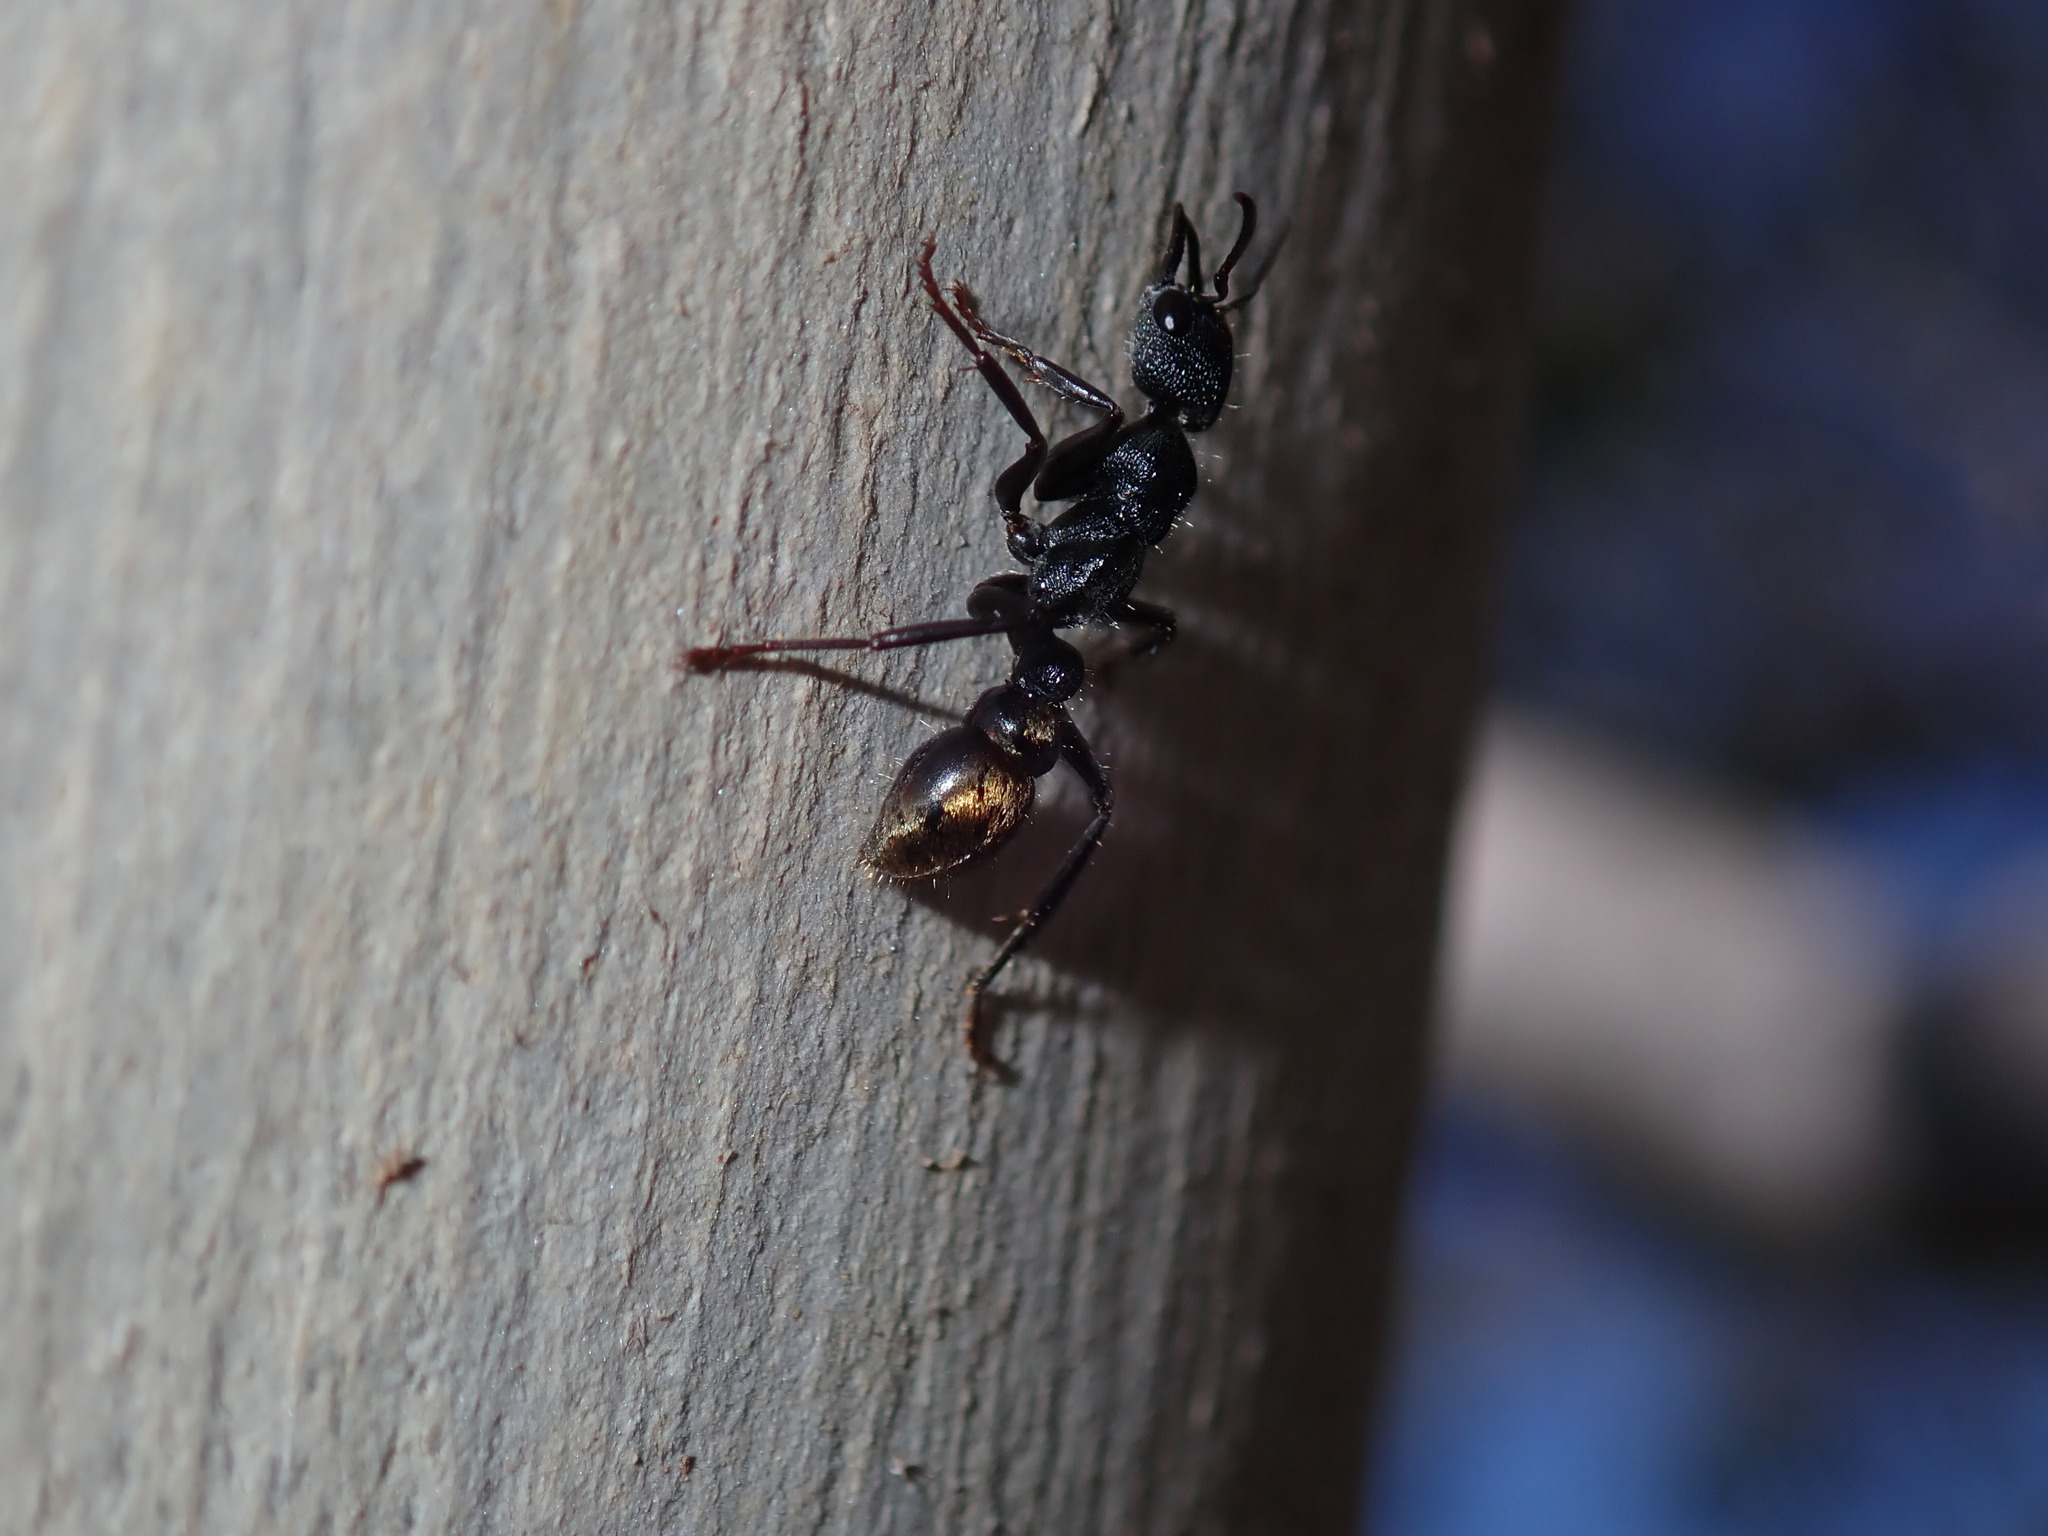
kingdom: Animalia
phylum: Arthropoda
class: Insecta
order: Hymenoptera
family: Formicidae
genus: Myrmecia
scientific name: Myrmecia queenslandica
